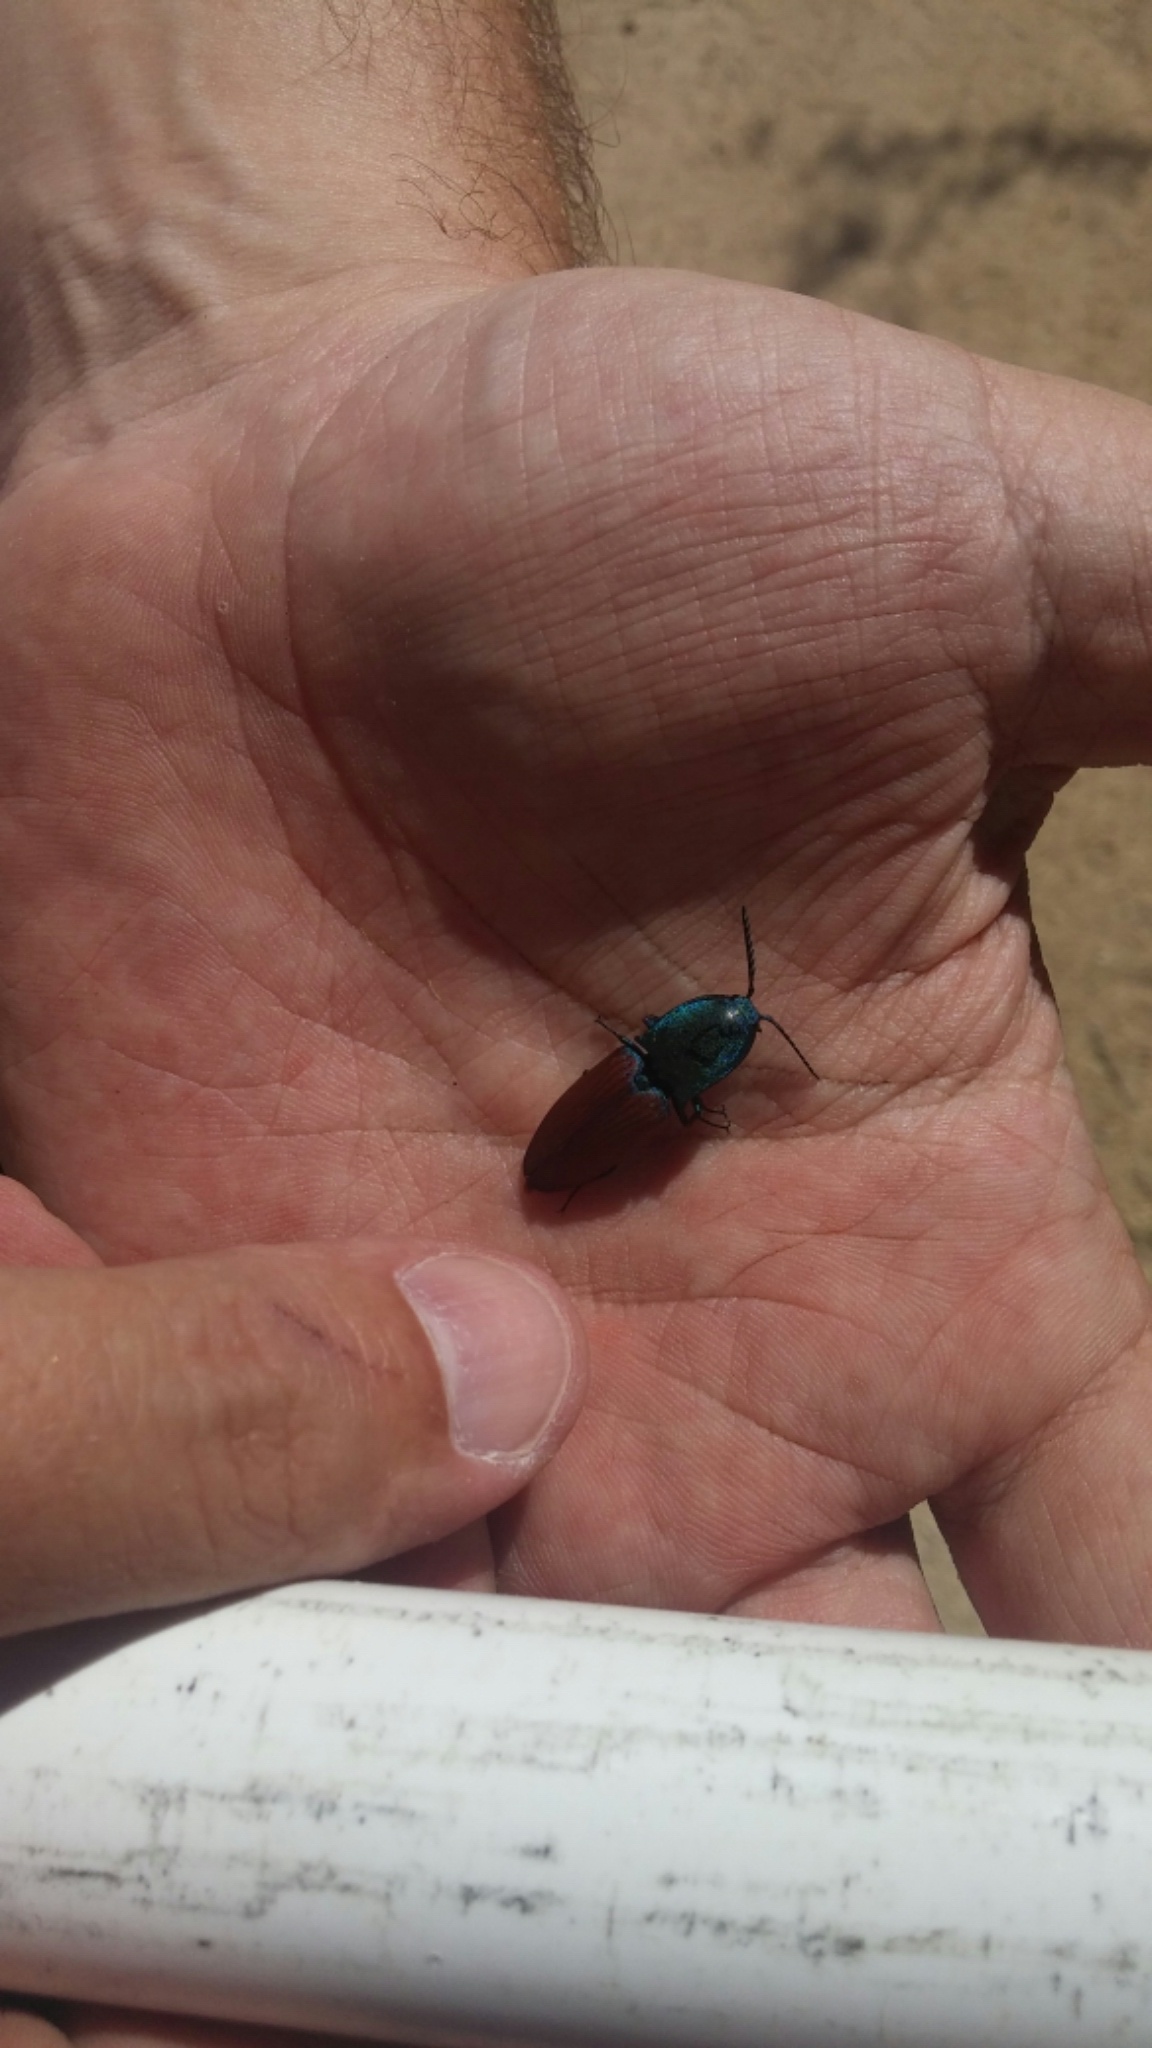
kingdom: Animalia
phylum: Arthropoda
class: Insecta
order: Coleoptera
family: Elateridae
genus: Chalcolepidius
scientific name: Chalcolepidius
